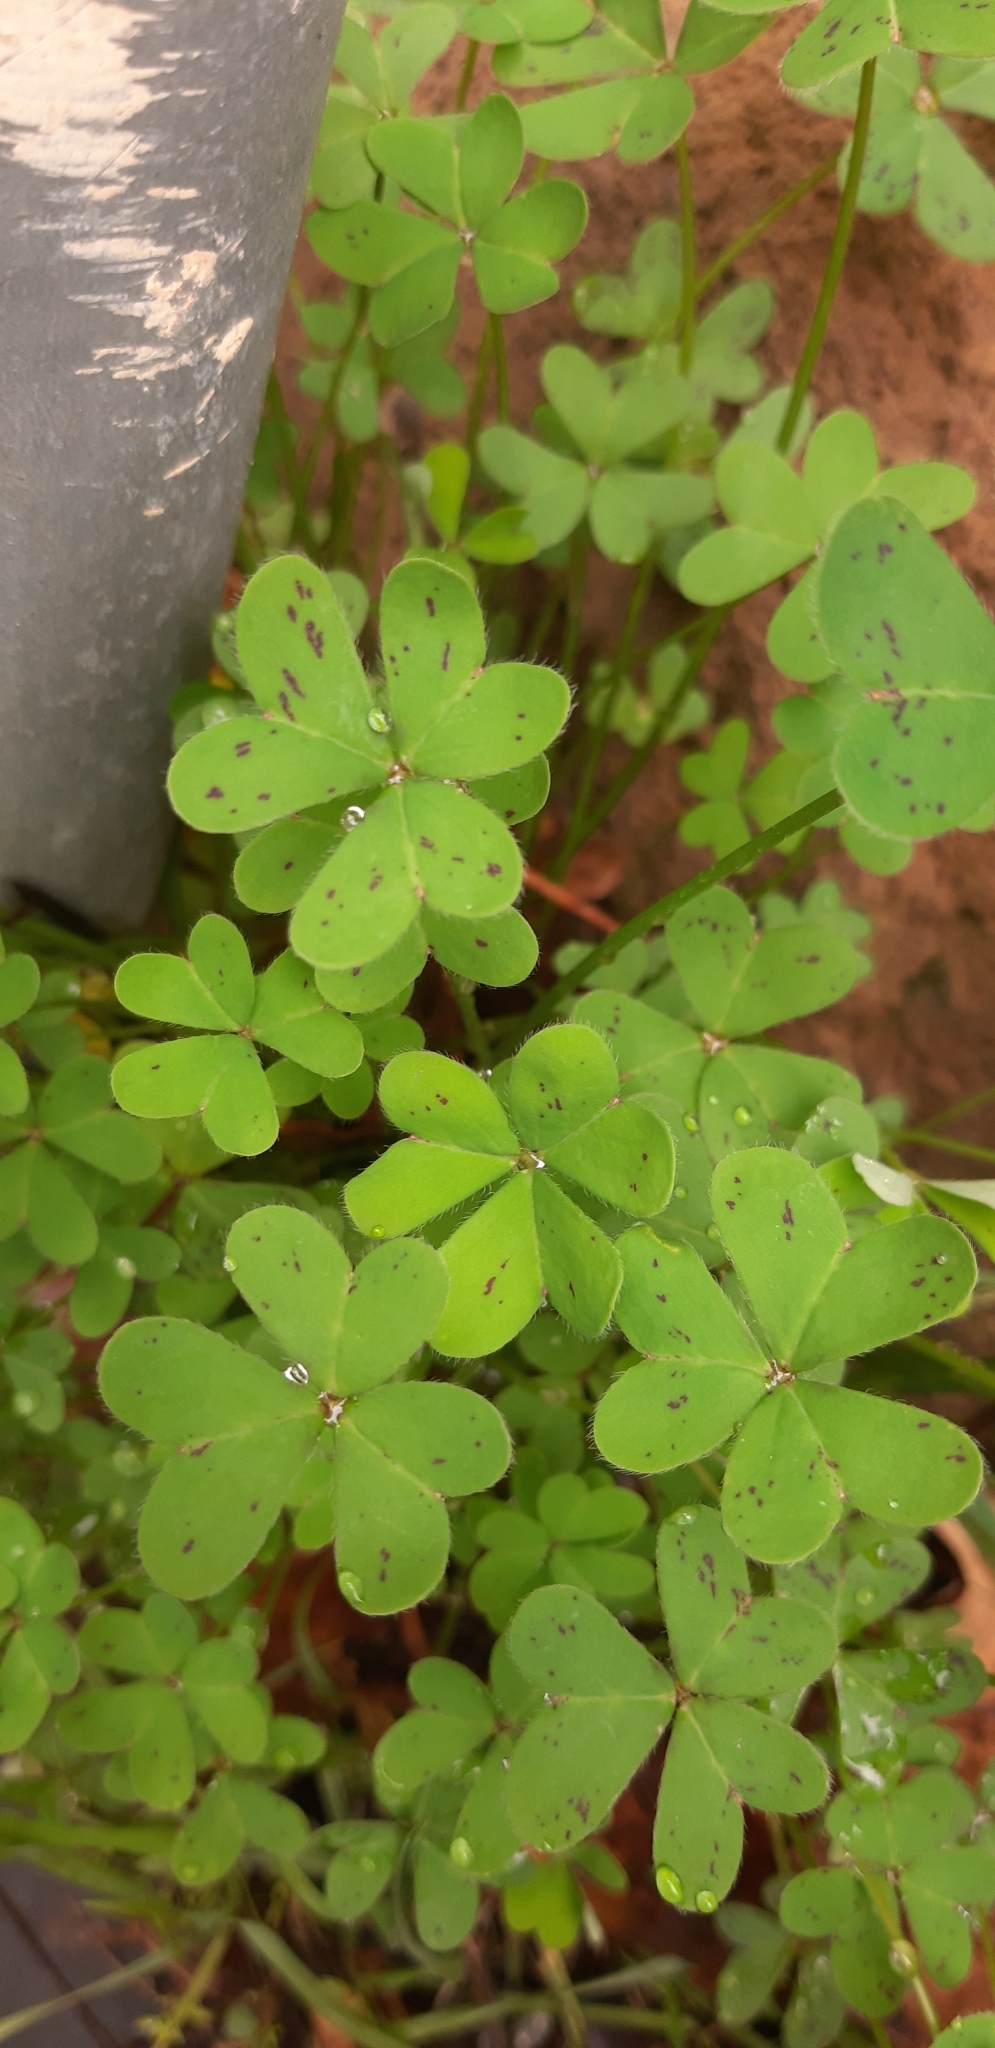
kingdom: Plantae
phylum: Tracheophyta
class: Magnoliopsida
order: Oxalidales
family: Oxalidaceae
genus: Oxalis
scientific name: Oxalis pes-caprae
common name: Bermuda-buttercup
